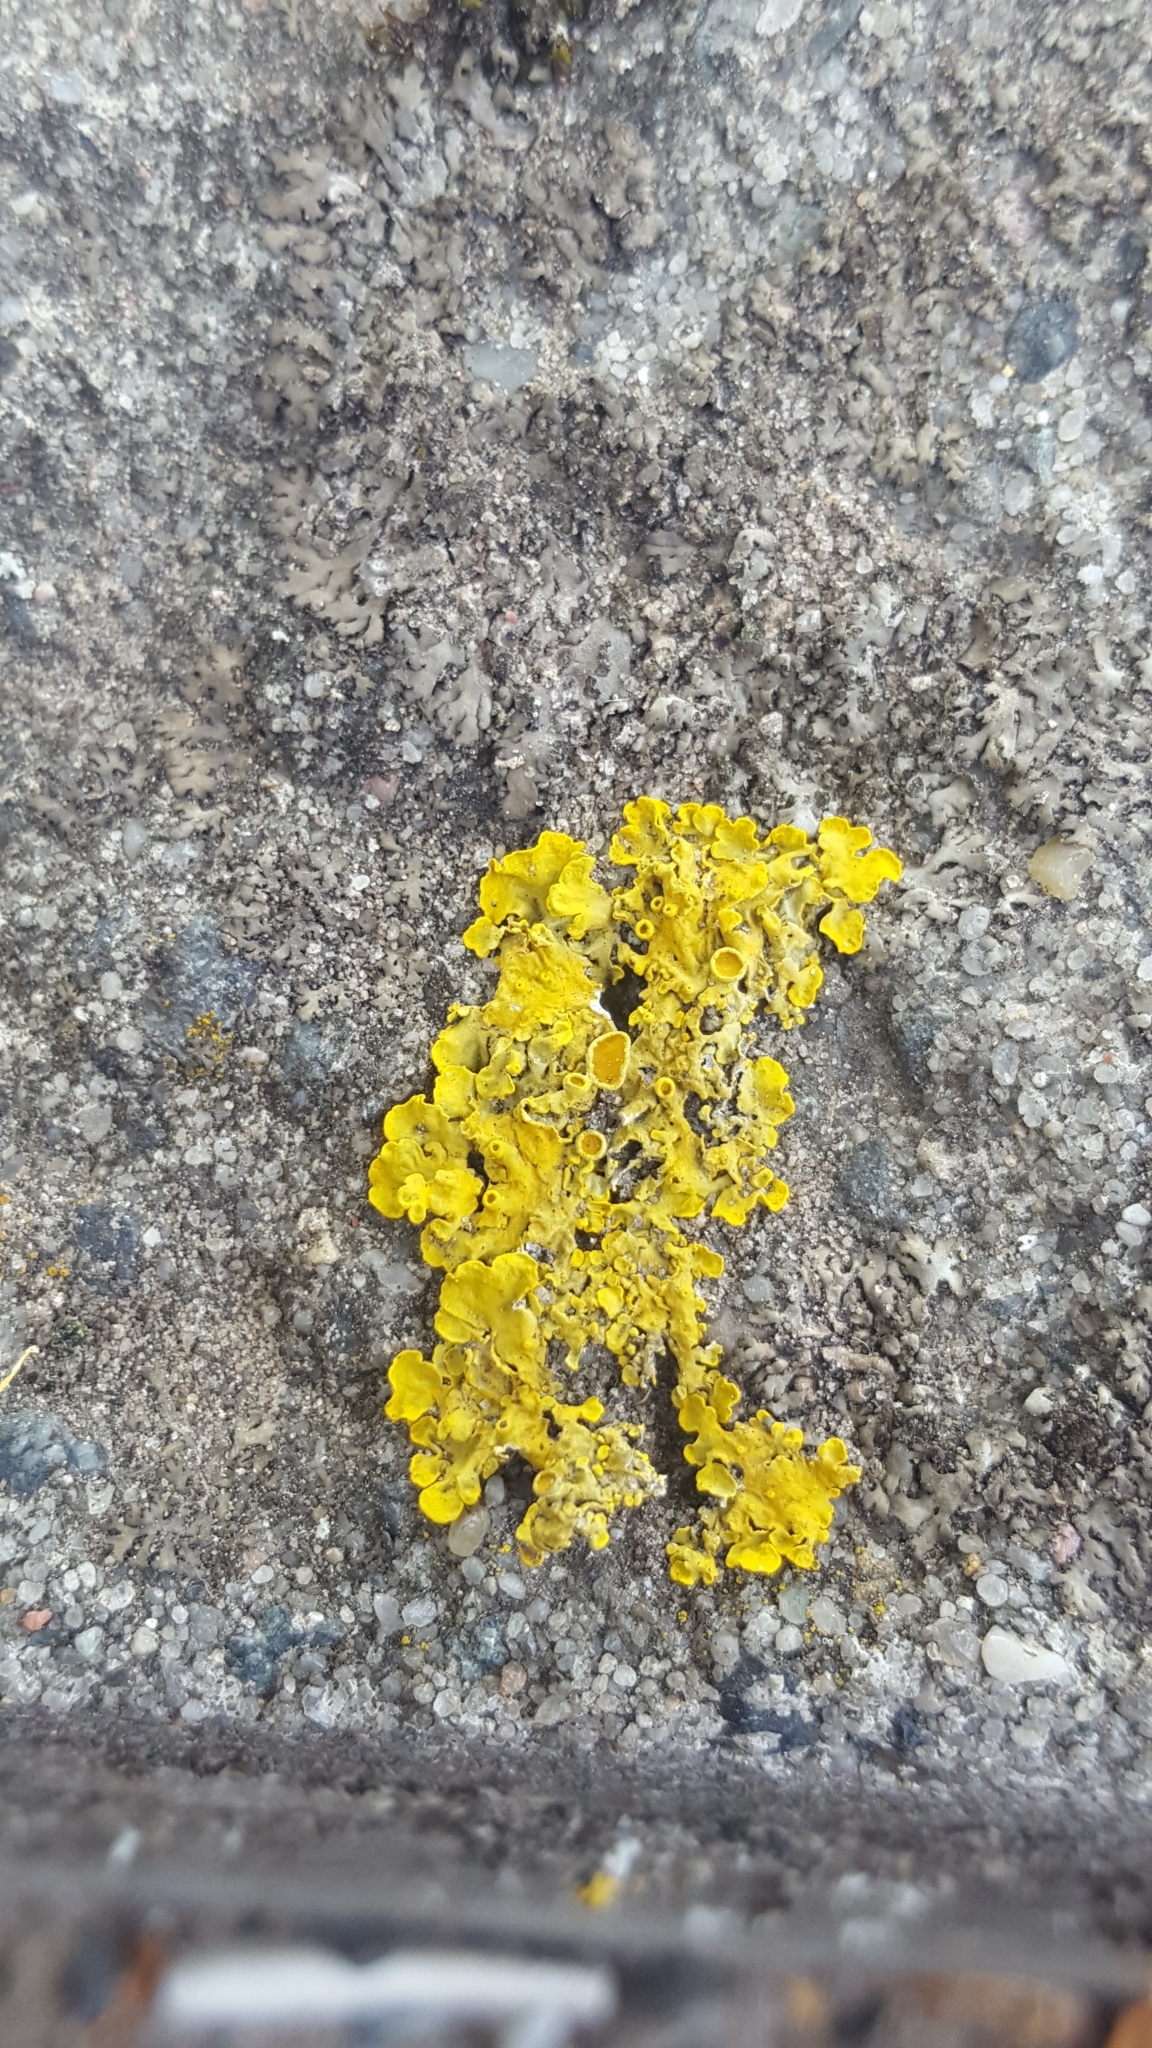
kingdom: Fungi
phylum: Ascomycota
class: Lecanoromycetes
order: Teloschistales
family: Teloschistaceae
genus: Xanthoria
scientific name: Xanthoria parietina
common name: Common orange lichen
